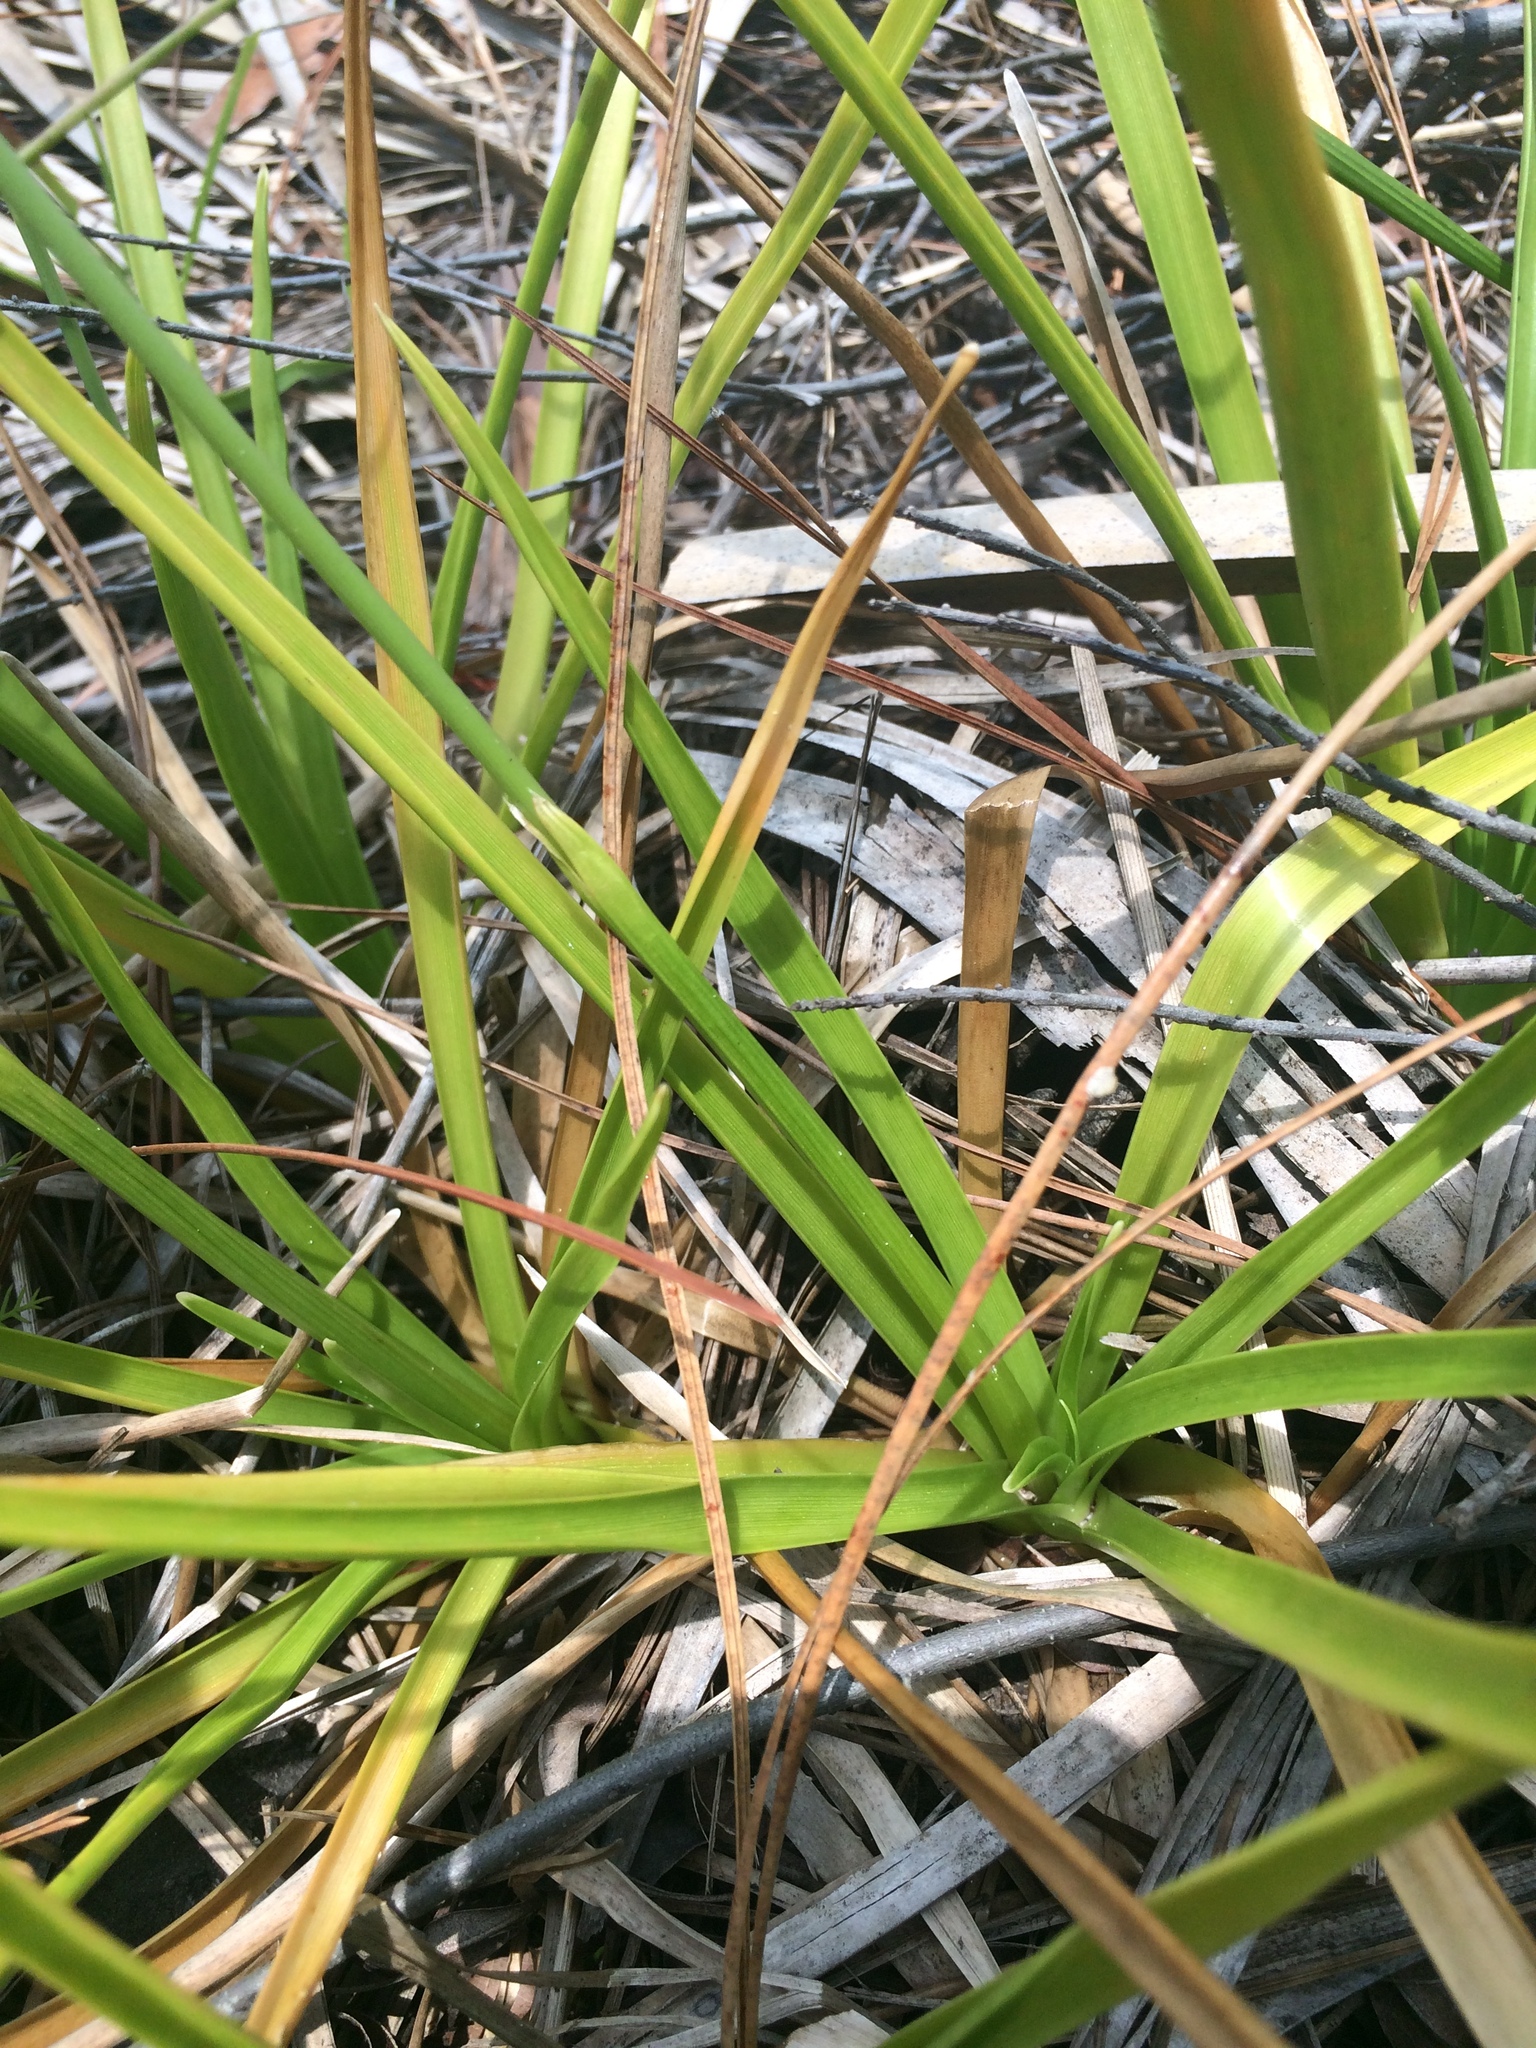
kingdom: Plantae
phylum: Tracheophyta
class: Liliopsida
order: Poales
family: Eriocaulaceae
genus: Eriocaulon
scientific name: Eriocaulon decangulare
